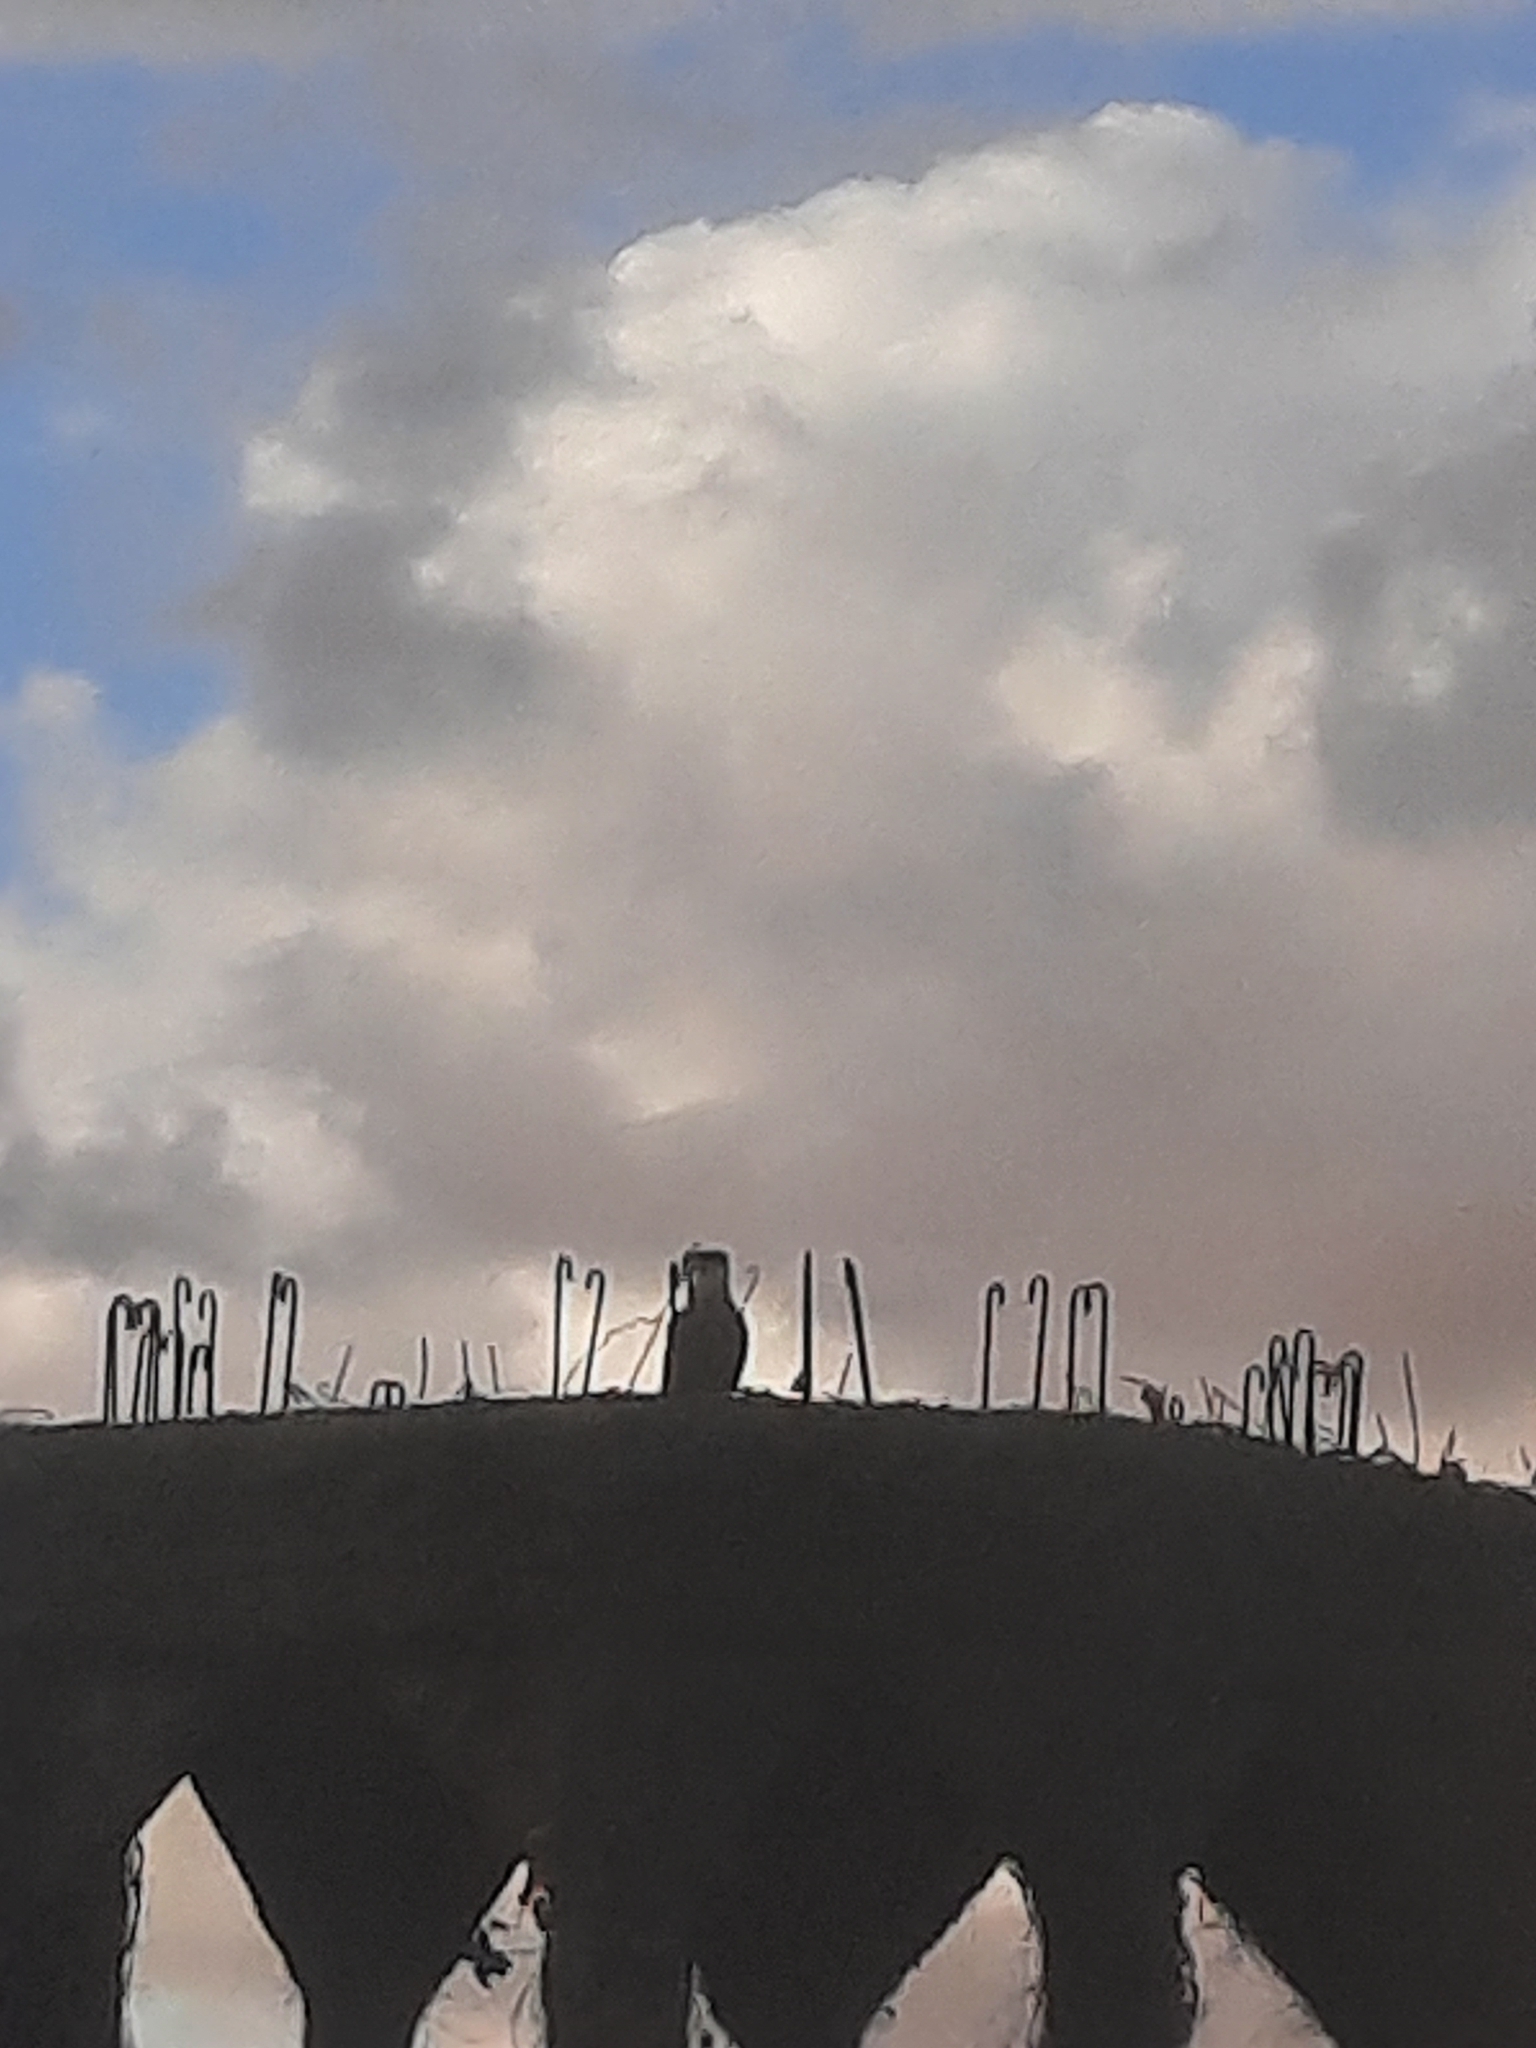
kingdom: Animalia
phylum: Chordata
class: Aves
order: Falconiformes
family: Falconidae
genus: Caracara
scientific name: Caracara plancus
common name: Southern caracara
